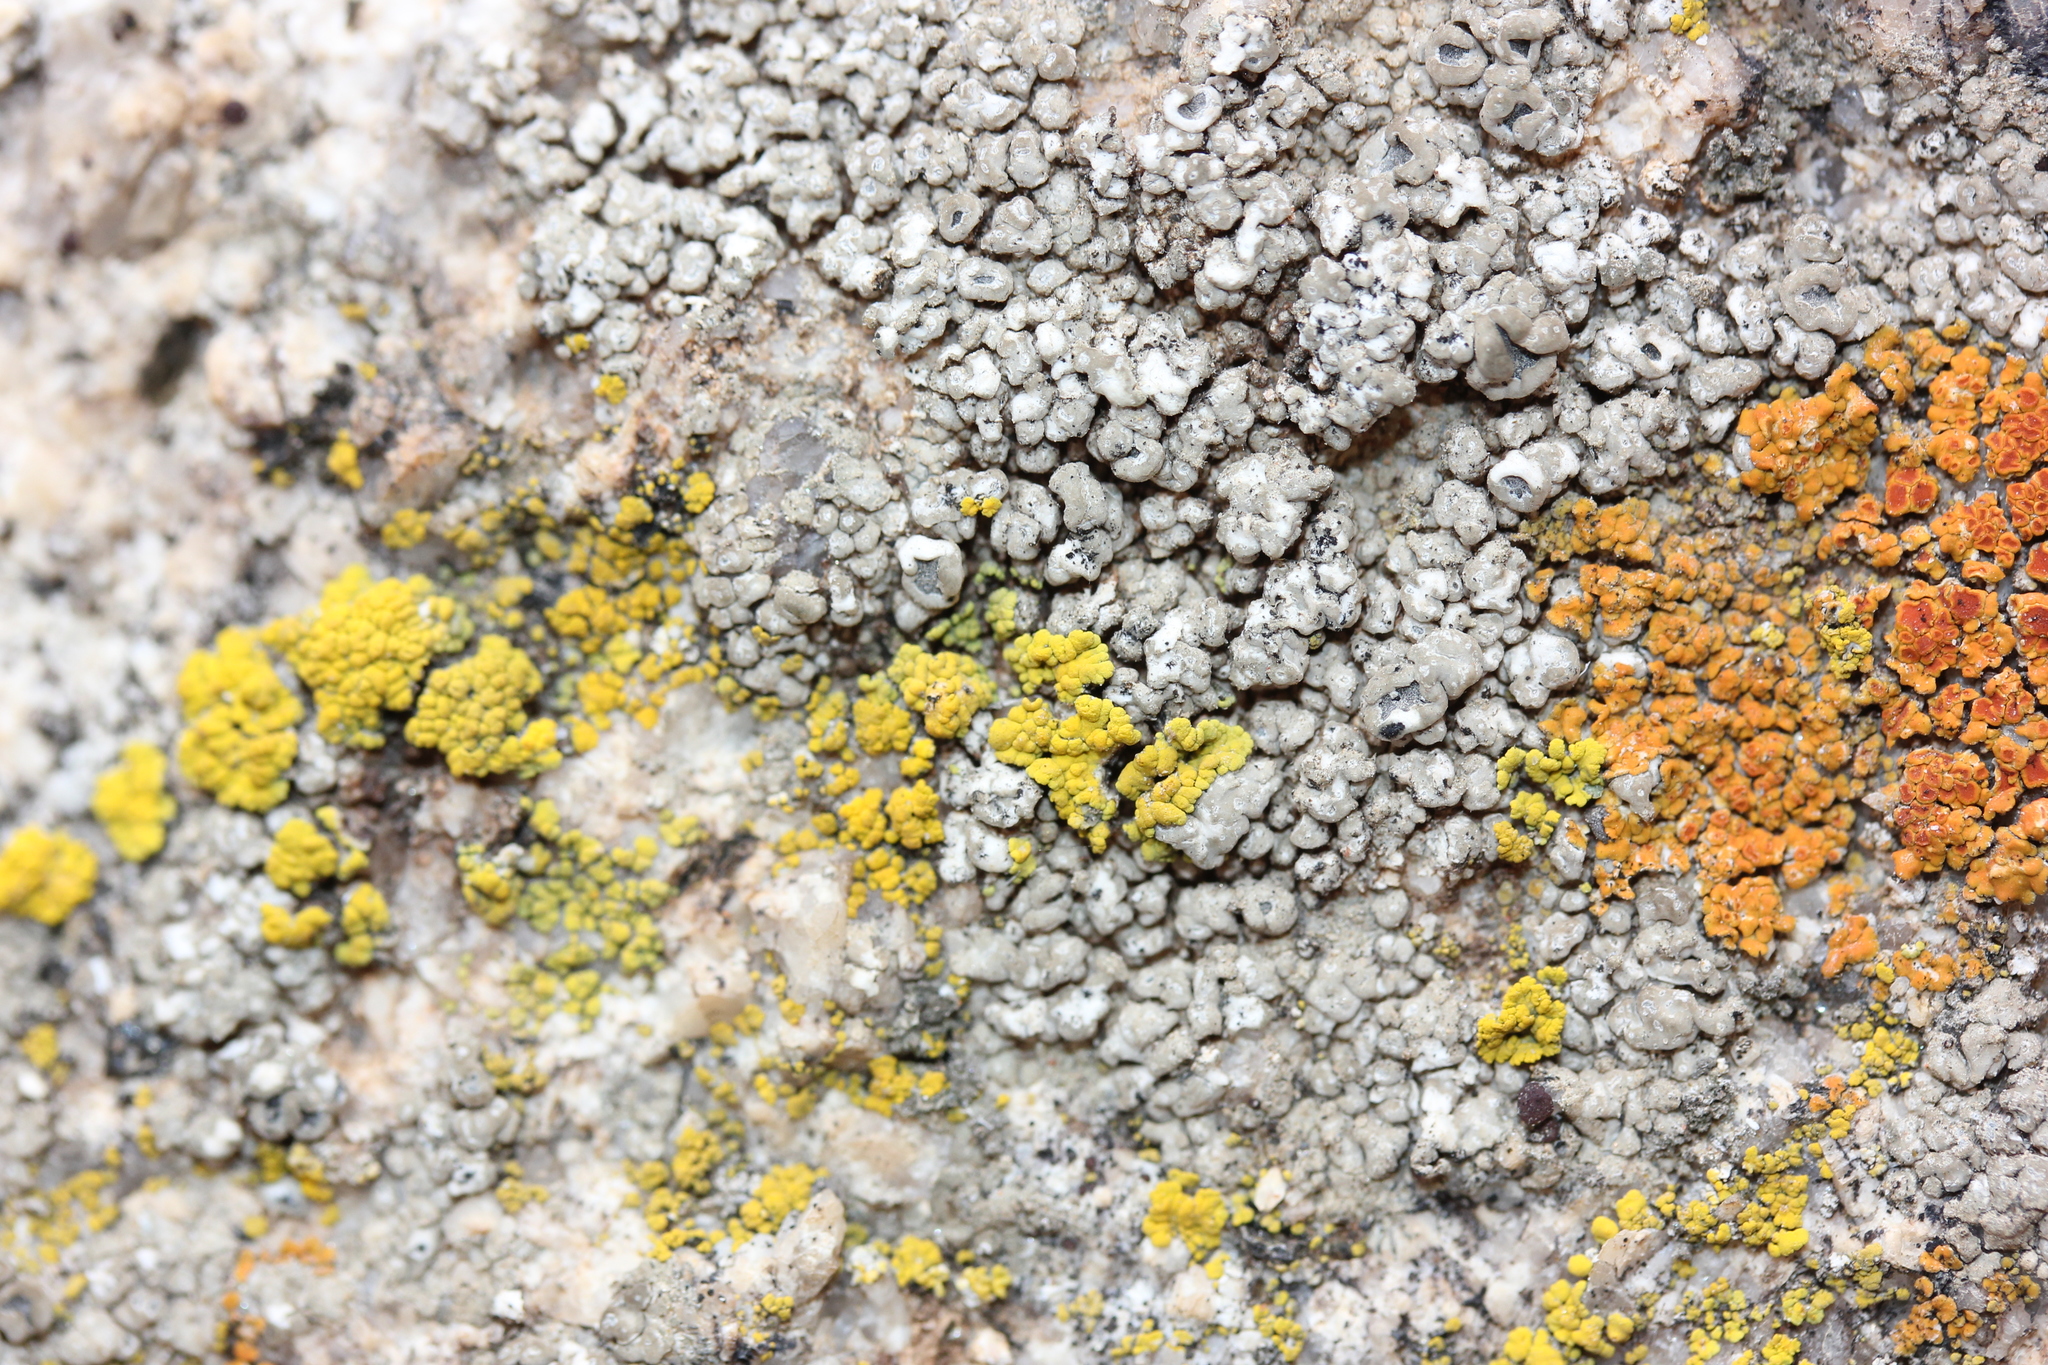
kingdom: Fungi
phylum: Ascomycota
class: Candelariomycetes
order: Candelariales
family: Candelariaceae
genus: Candelariella
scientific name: Candelariella rosulans
